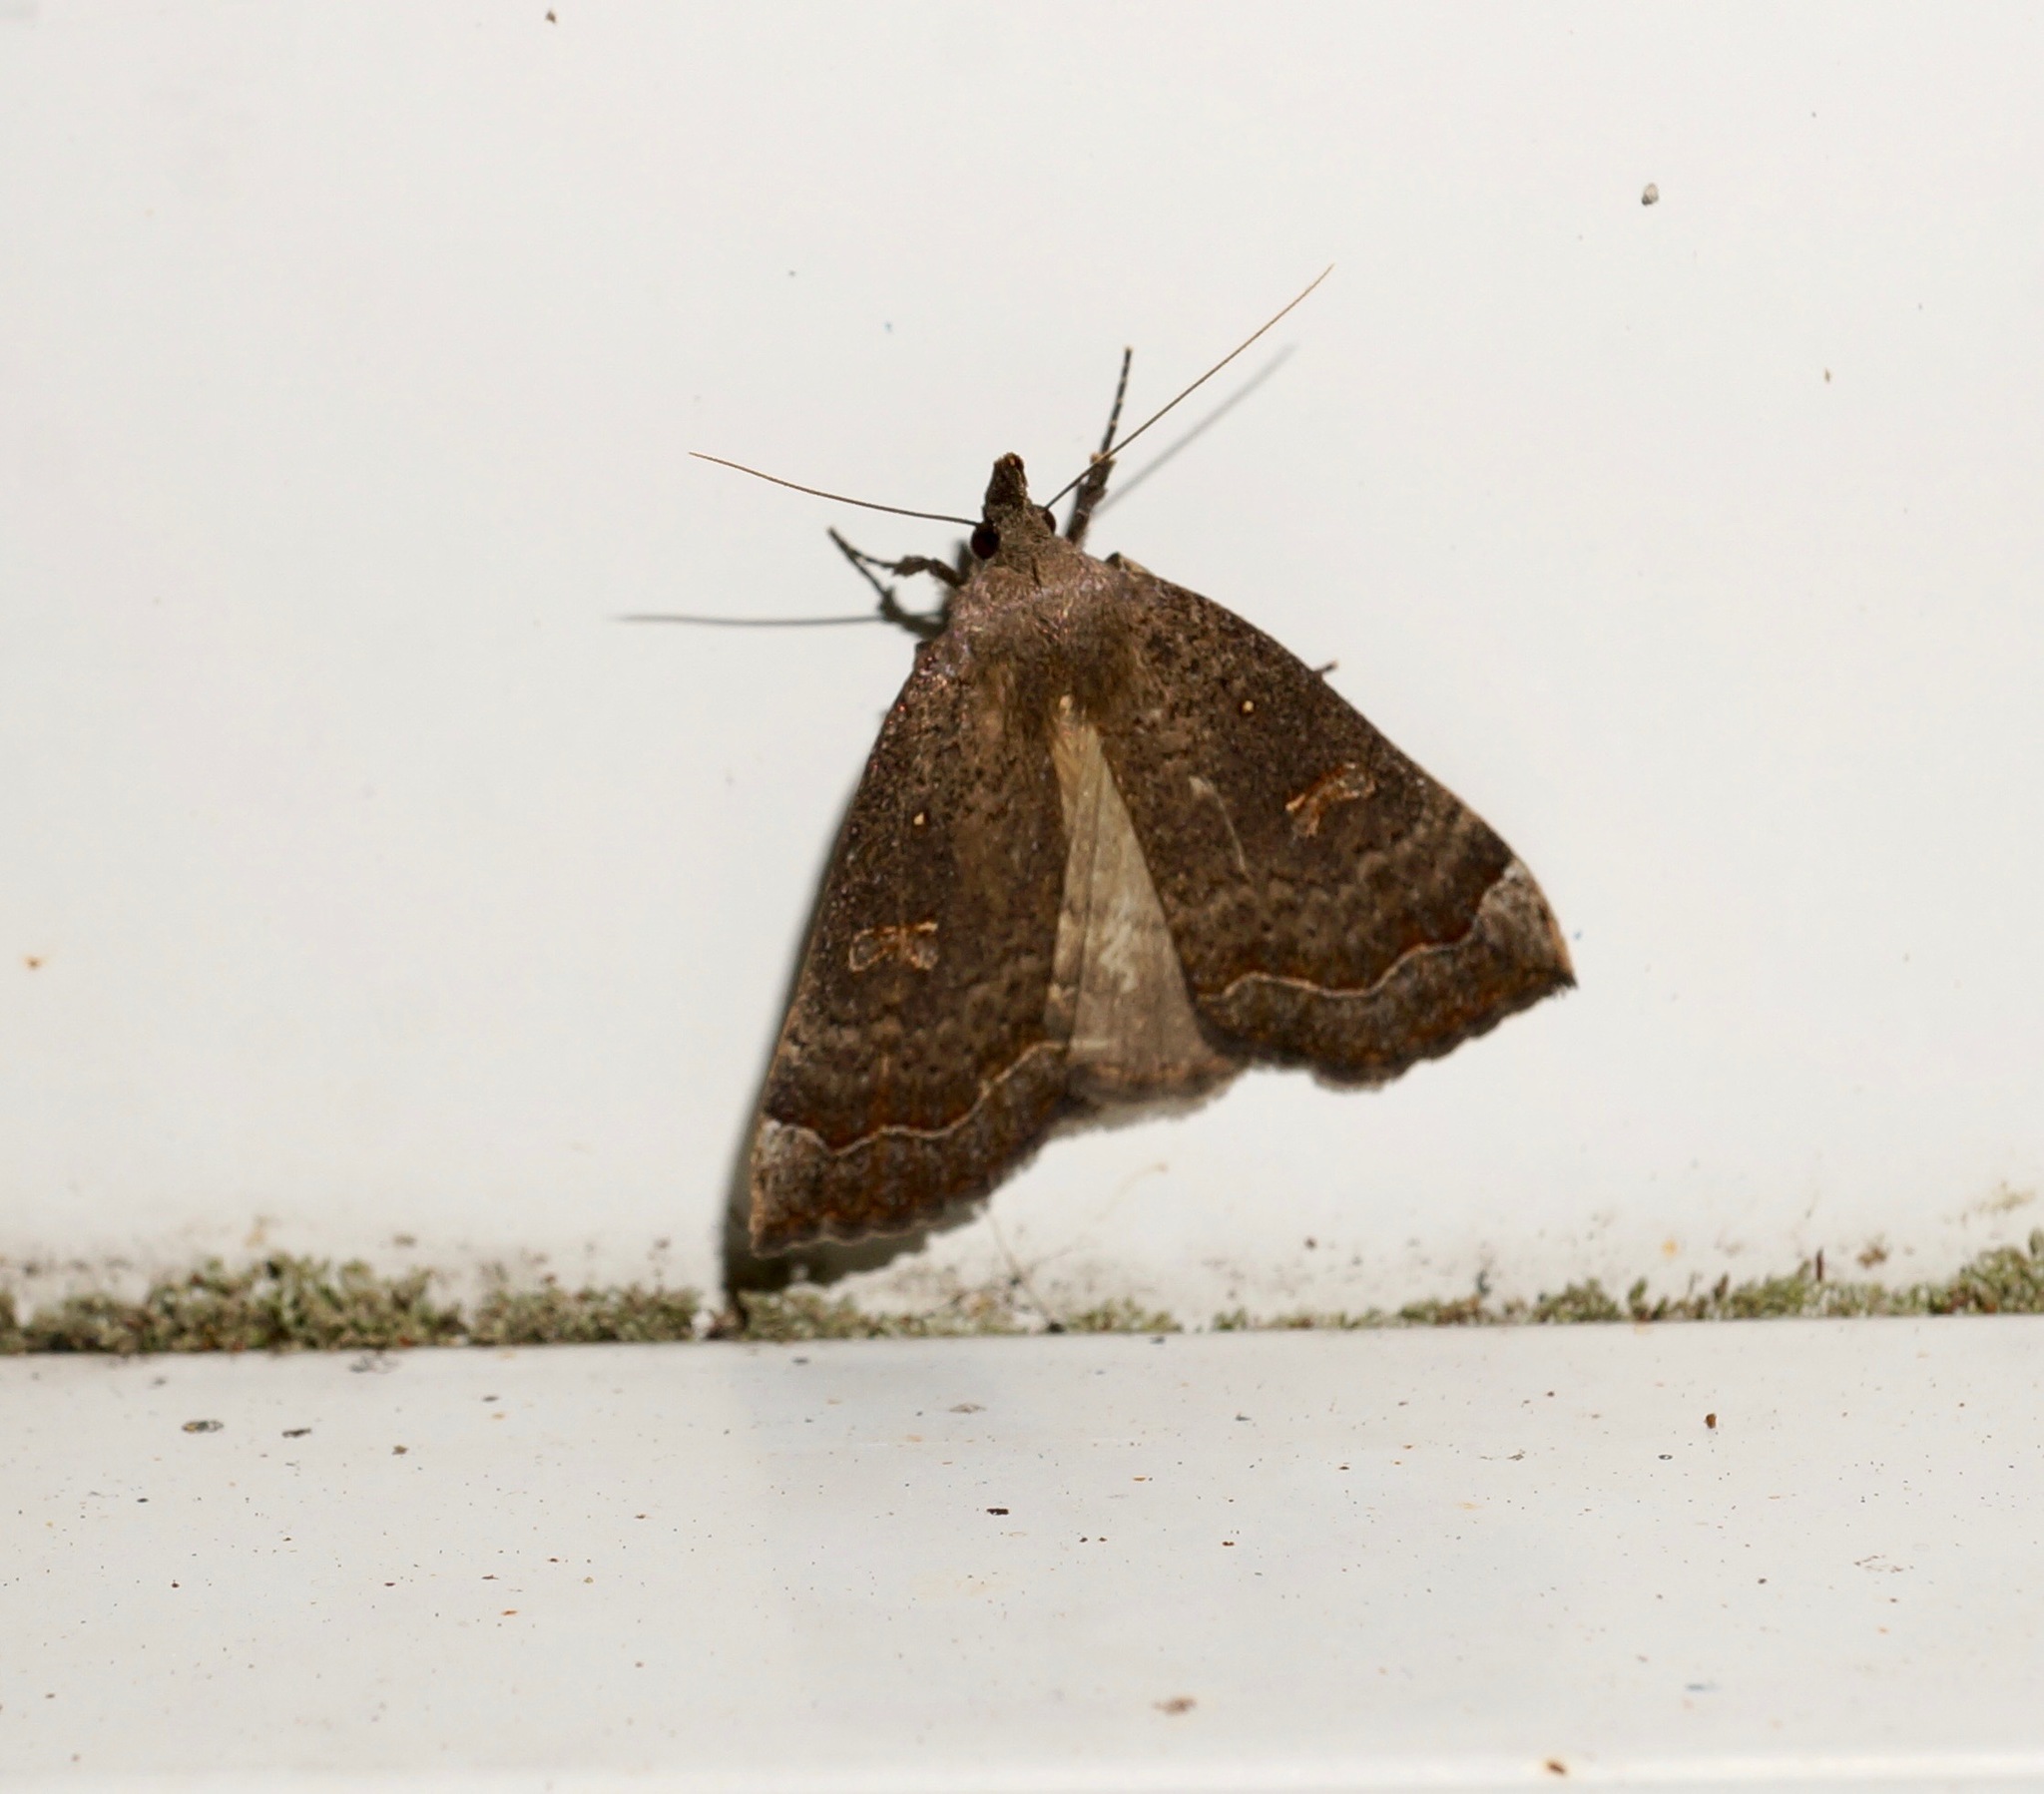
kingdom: Animalia
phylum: Arthropoda
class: Insecta
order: Lepidoptera
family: Erebidae
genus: Rhapsa
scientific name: Rhapsa scotosialis
